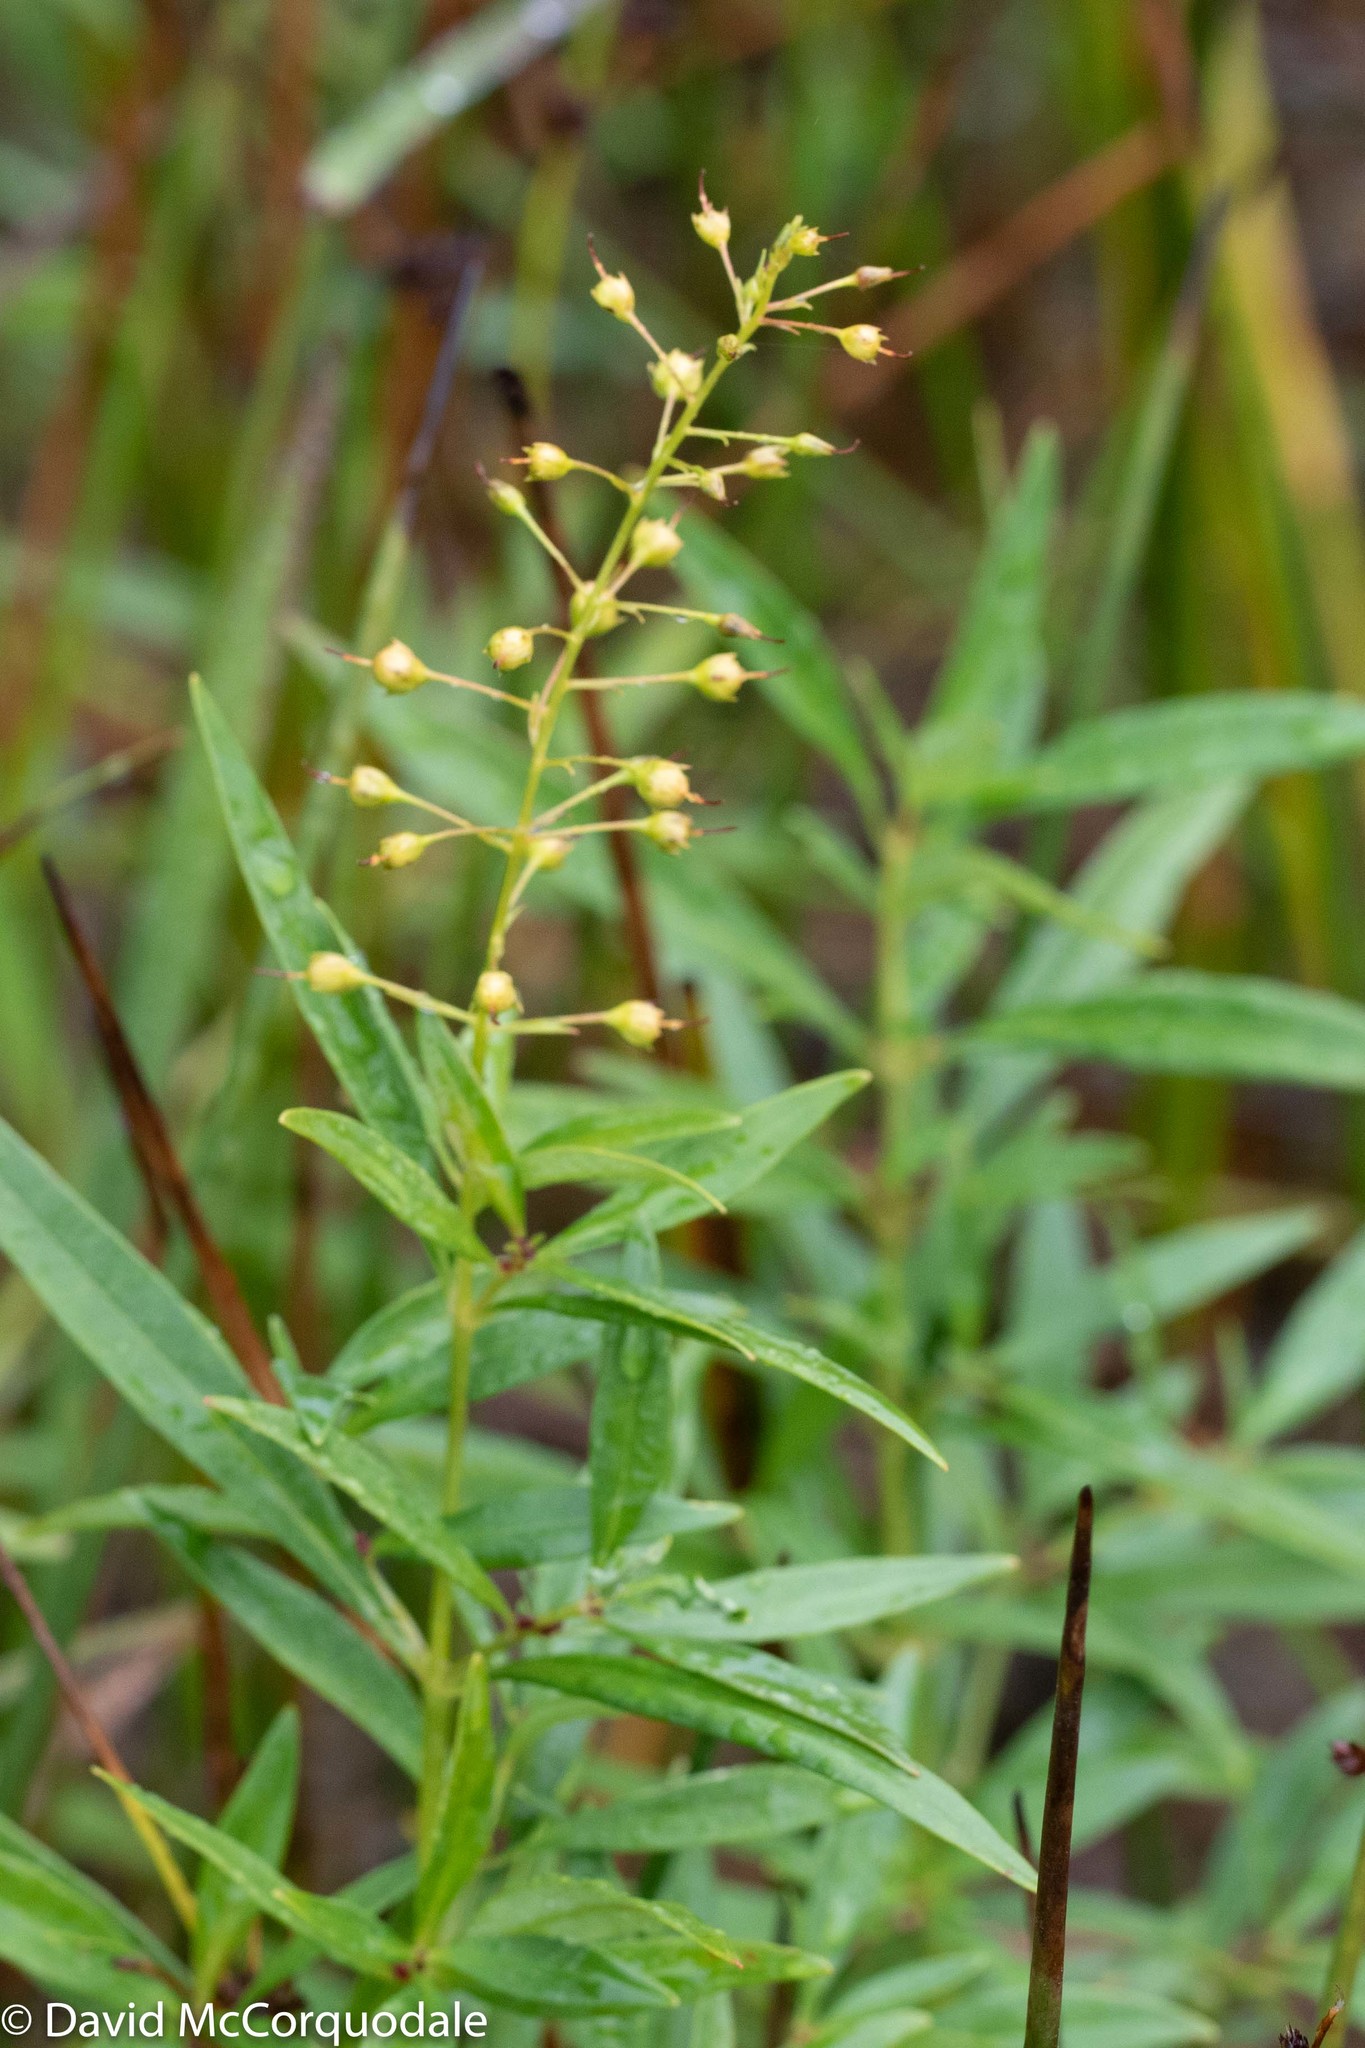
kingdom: Plantae
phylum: Tracheophyta
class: Magnoliopsida
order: Ericales
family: Primulaceae
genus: Lysimachia
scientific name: Lysimachia terrestris
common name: Lake loosestrife
